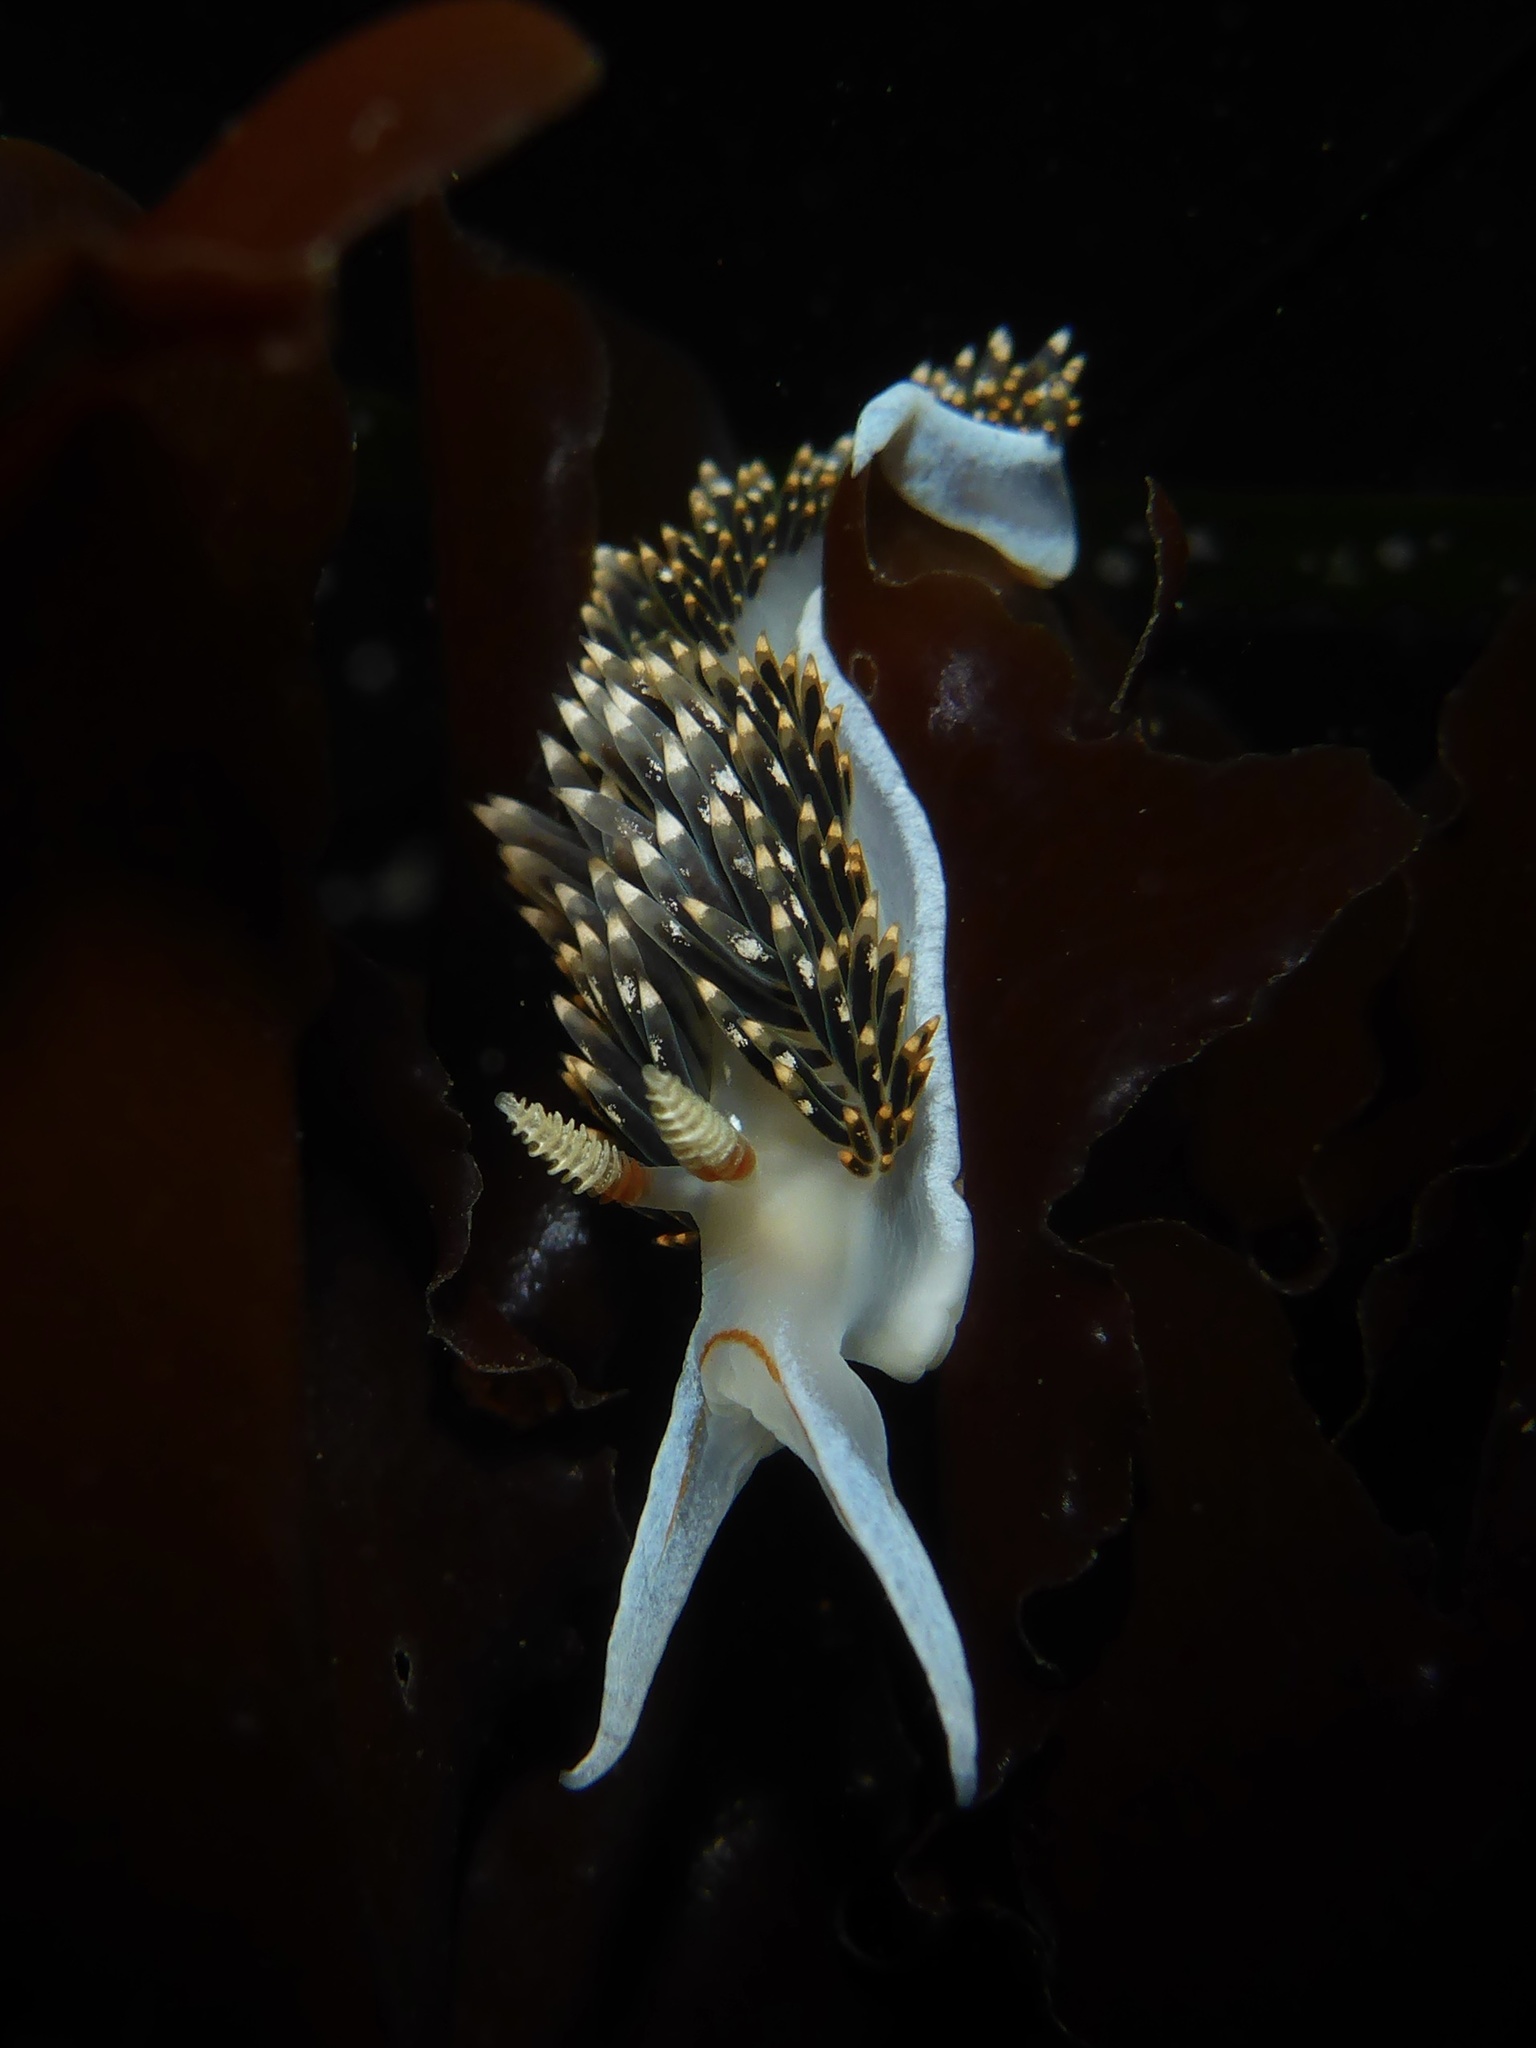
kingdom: Animalia
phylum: Mollusca
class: Gastropoda
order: Nudibranchia
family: Facelinidae
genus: Phidiana
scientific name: Phidiana hiltoni
